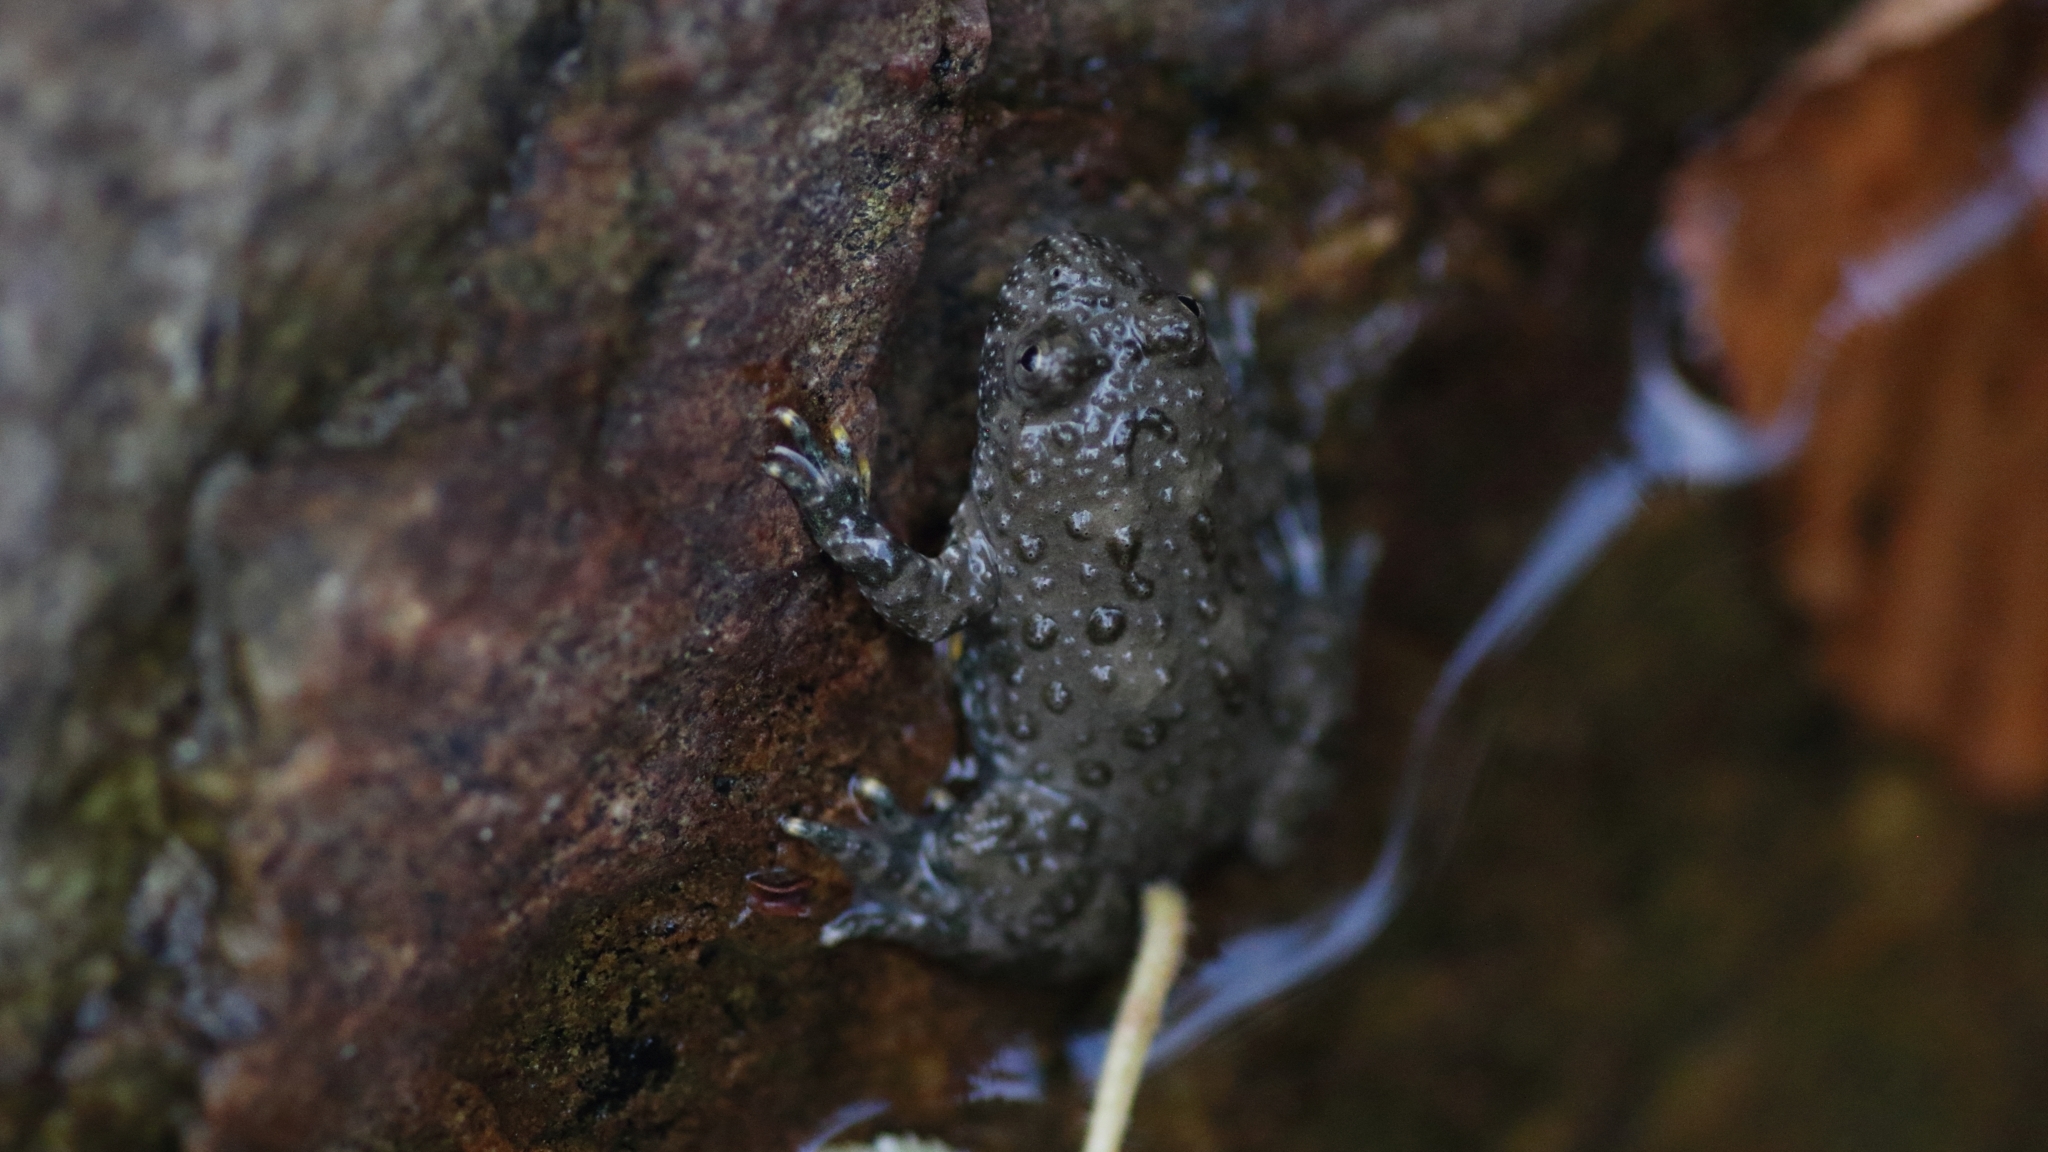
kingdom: Animalia
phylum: Chordata
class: Amphibia
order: Anura
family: Bombinatoridae
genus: Bombina
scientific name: Bombina variegata
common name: Yellow-bellied toad
